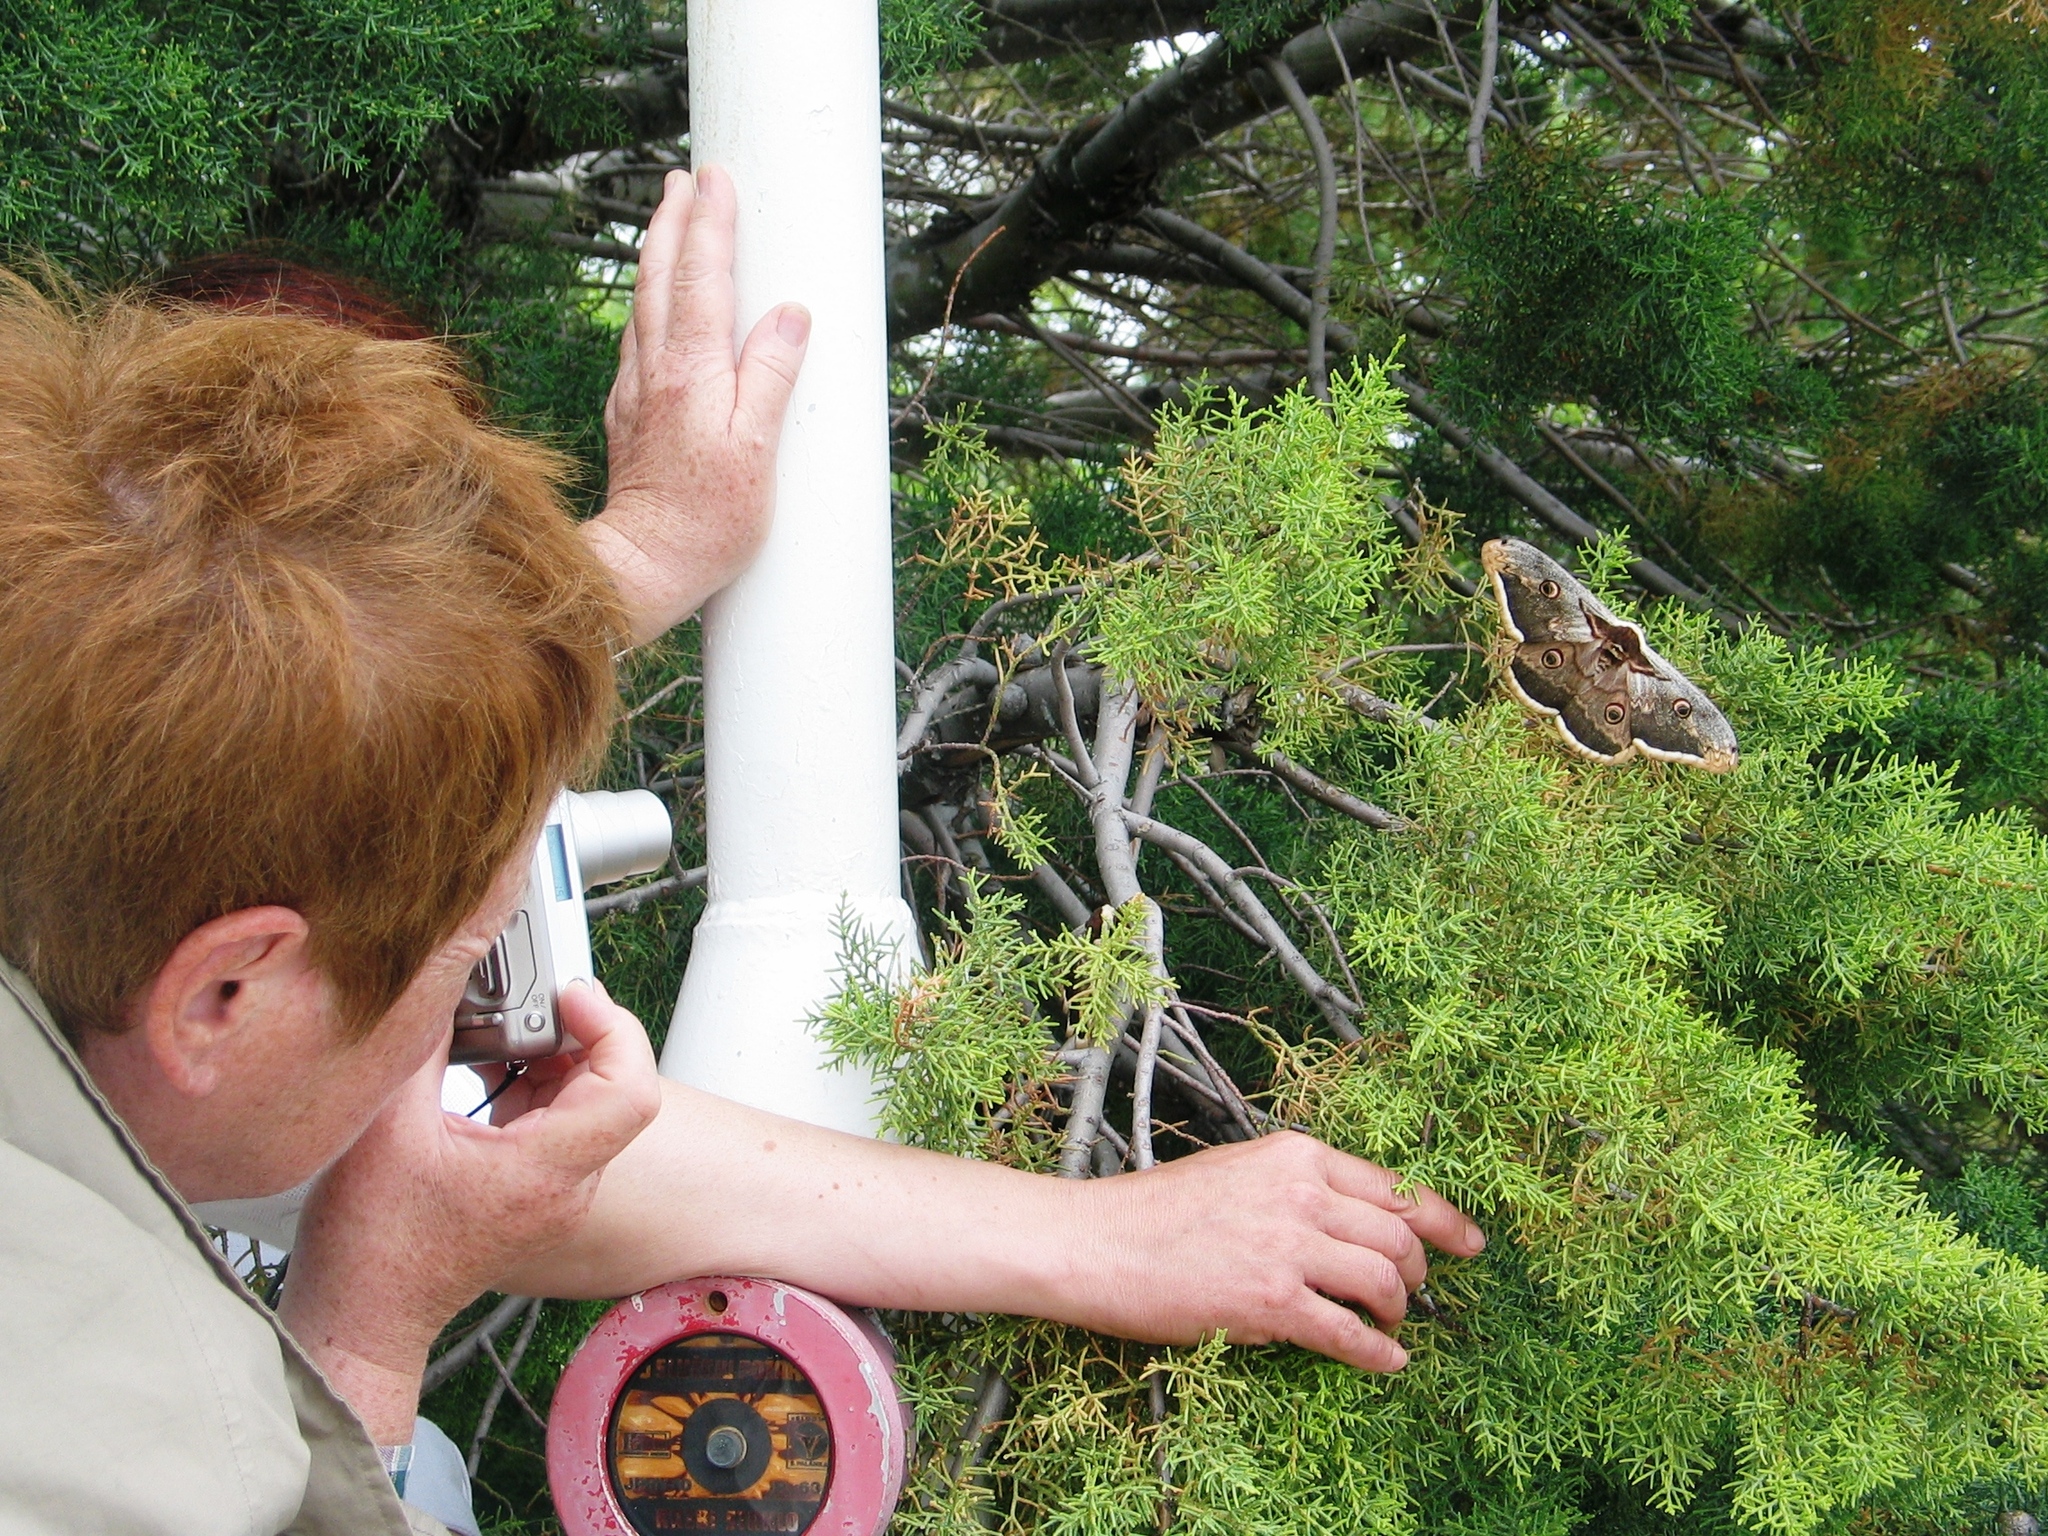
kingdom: Animalia
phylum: Arthropoda
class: Insecta
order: Lepidoptera
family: Saturniidae
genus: Saturnia
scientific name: Saturnia pyri
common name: Great peacock moth
